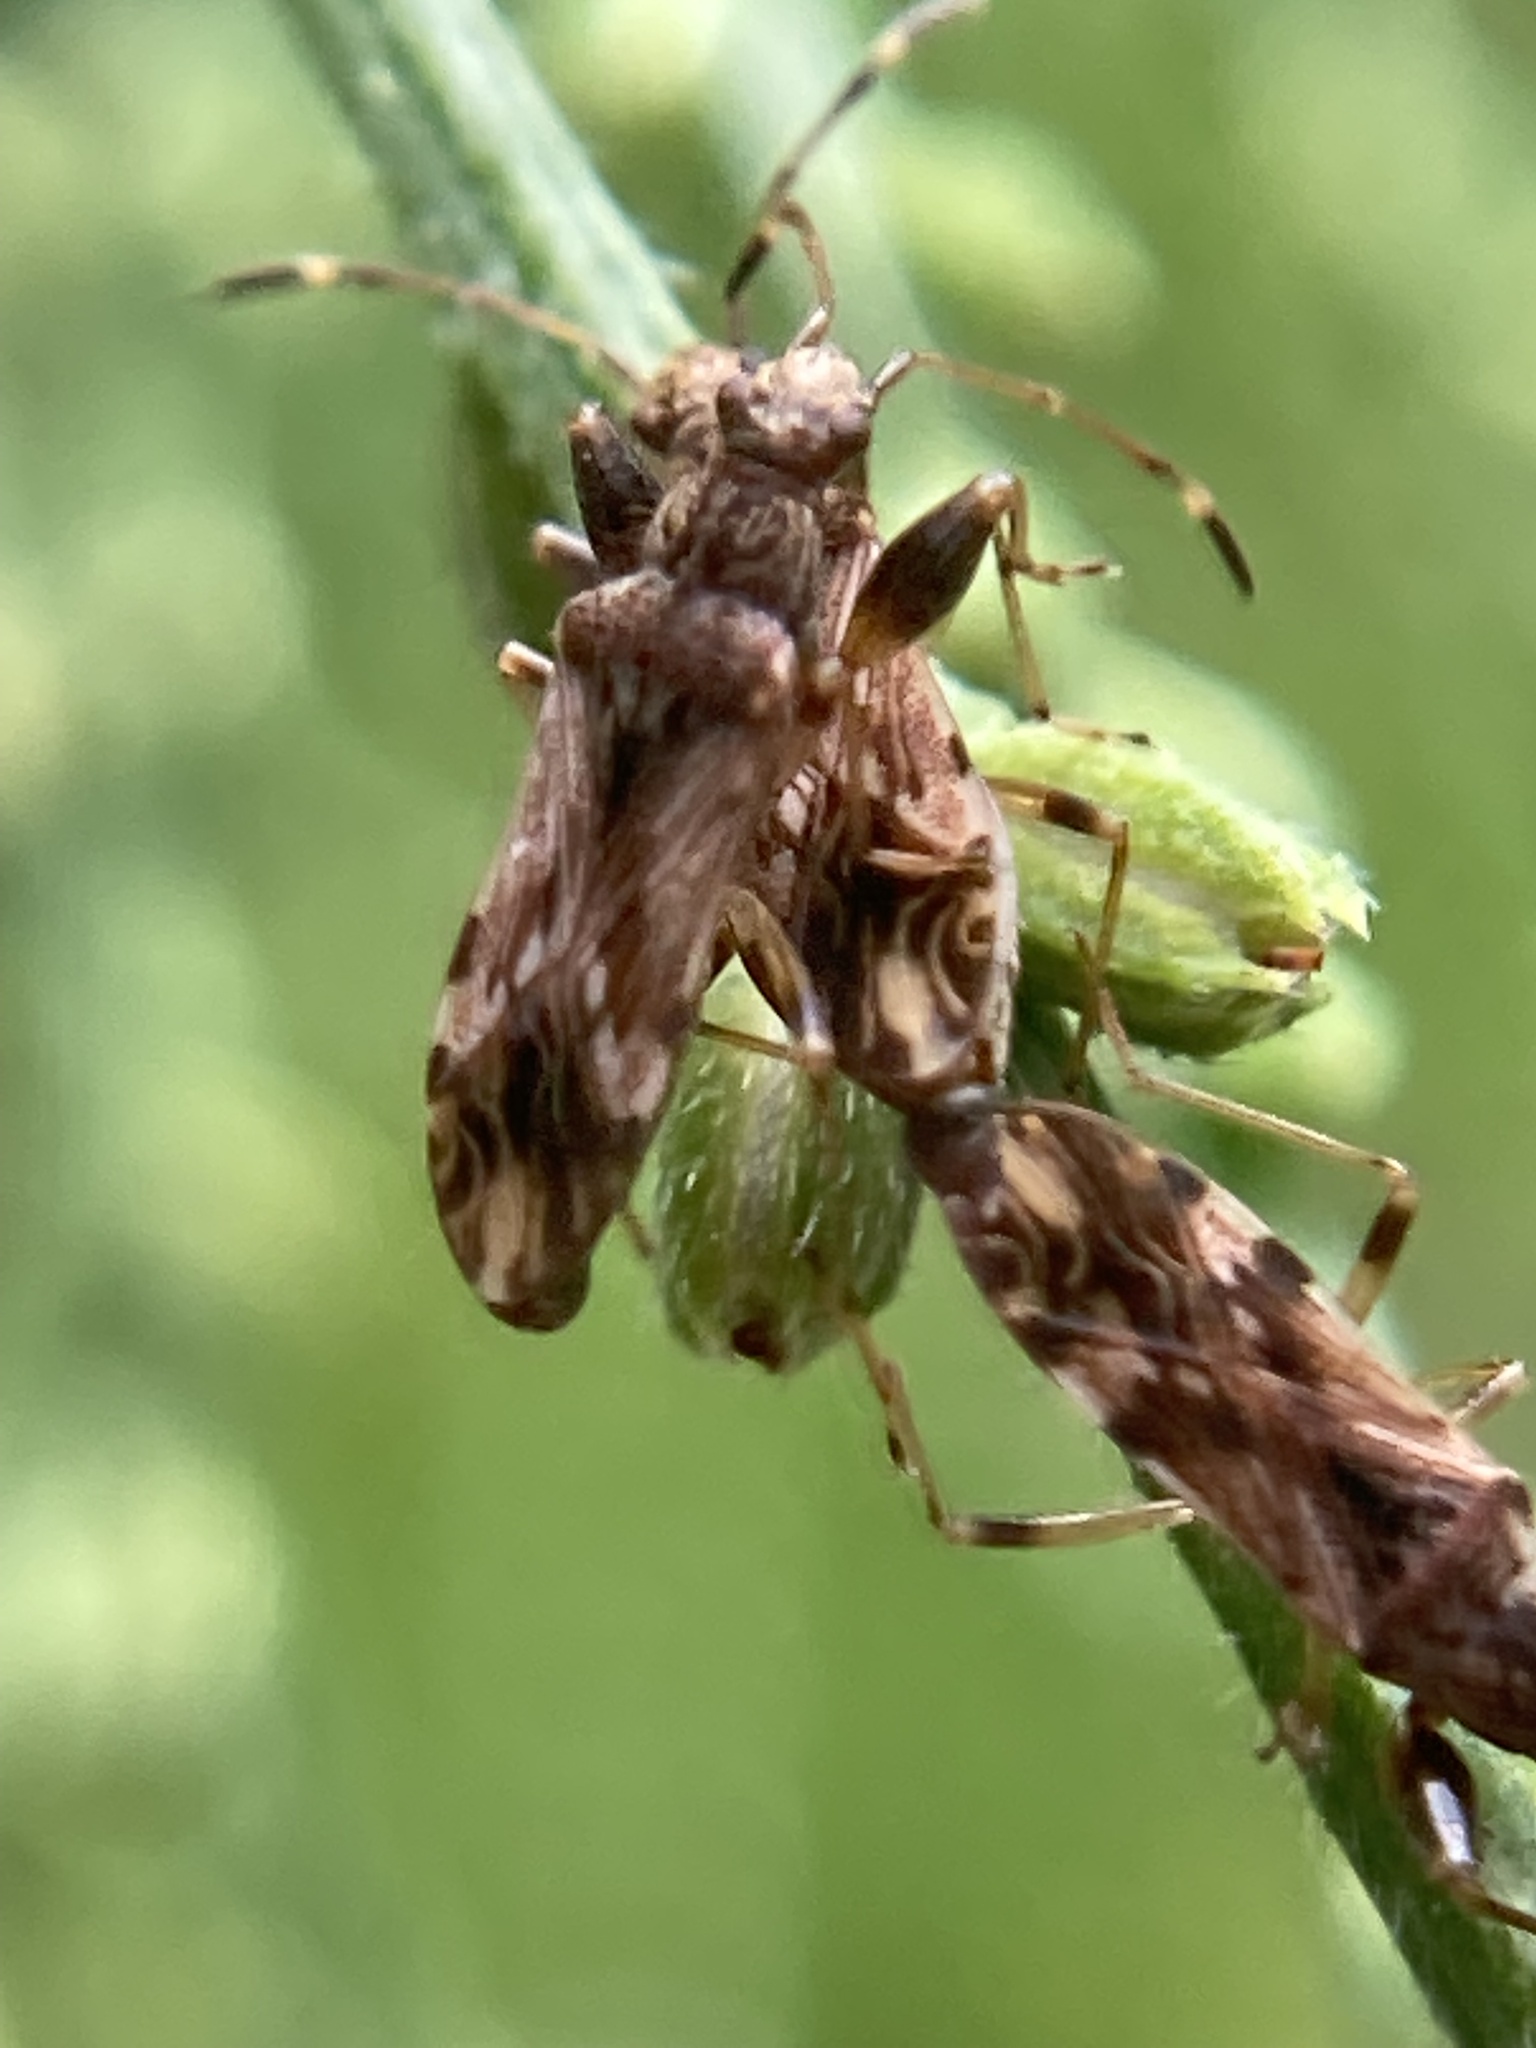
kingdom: Animalia
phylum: Arthropoda
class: Insecta
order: Hemiptera
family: Rhyparochromidae
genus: Neopamera
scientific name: Neopamera albocincta
